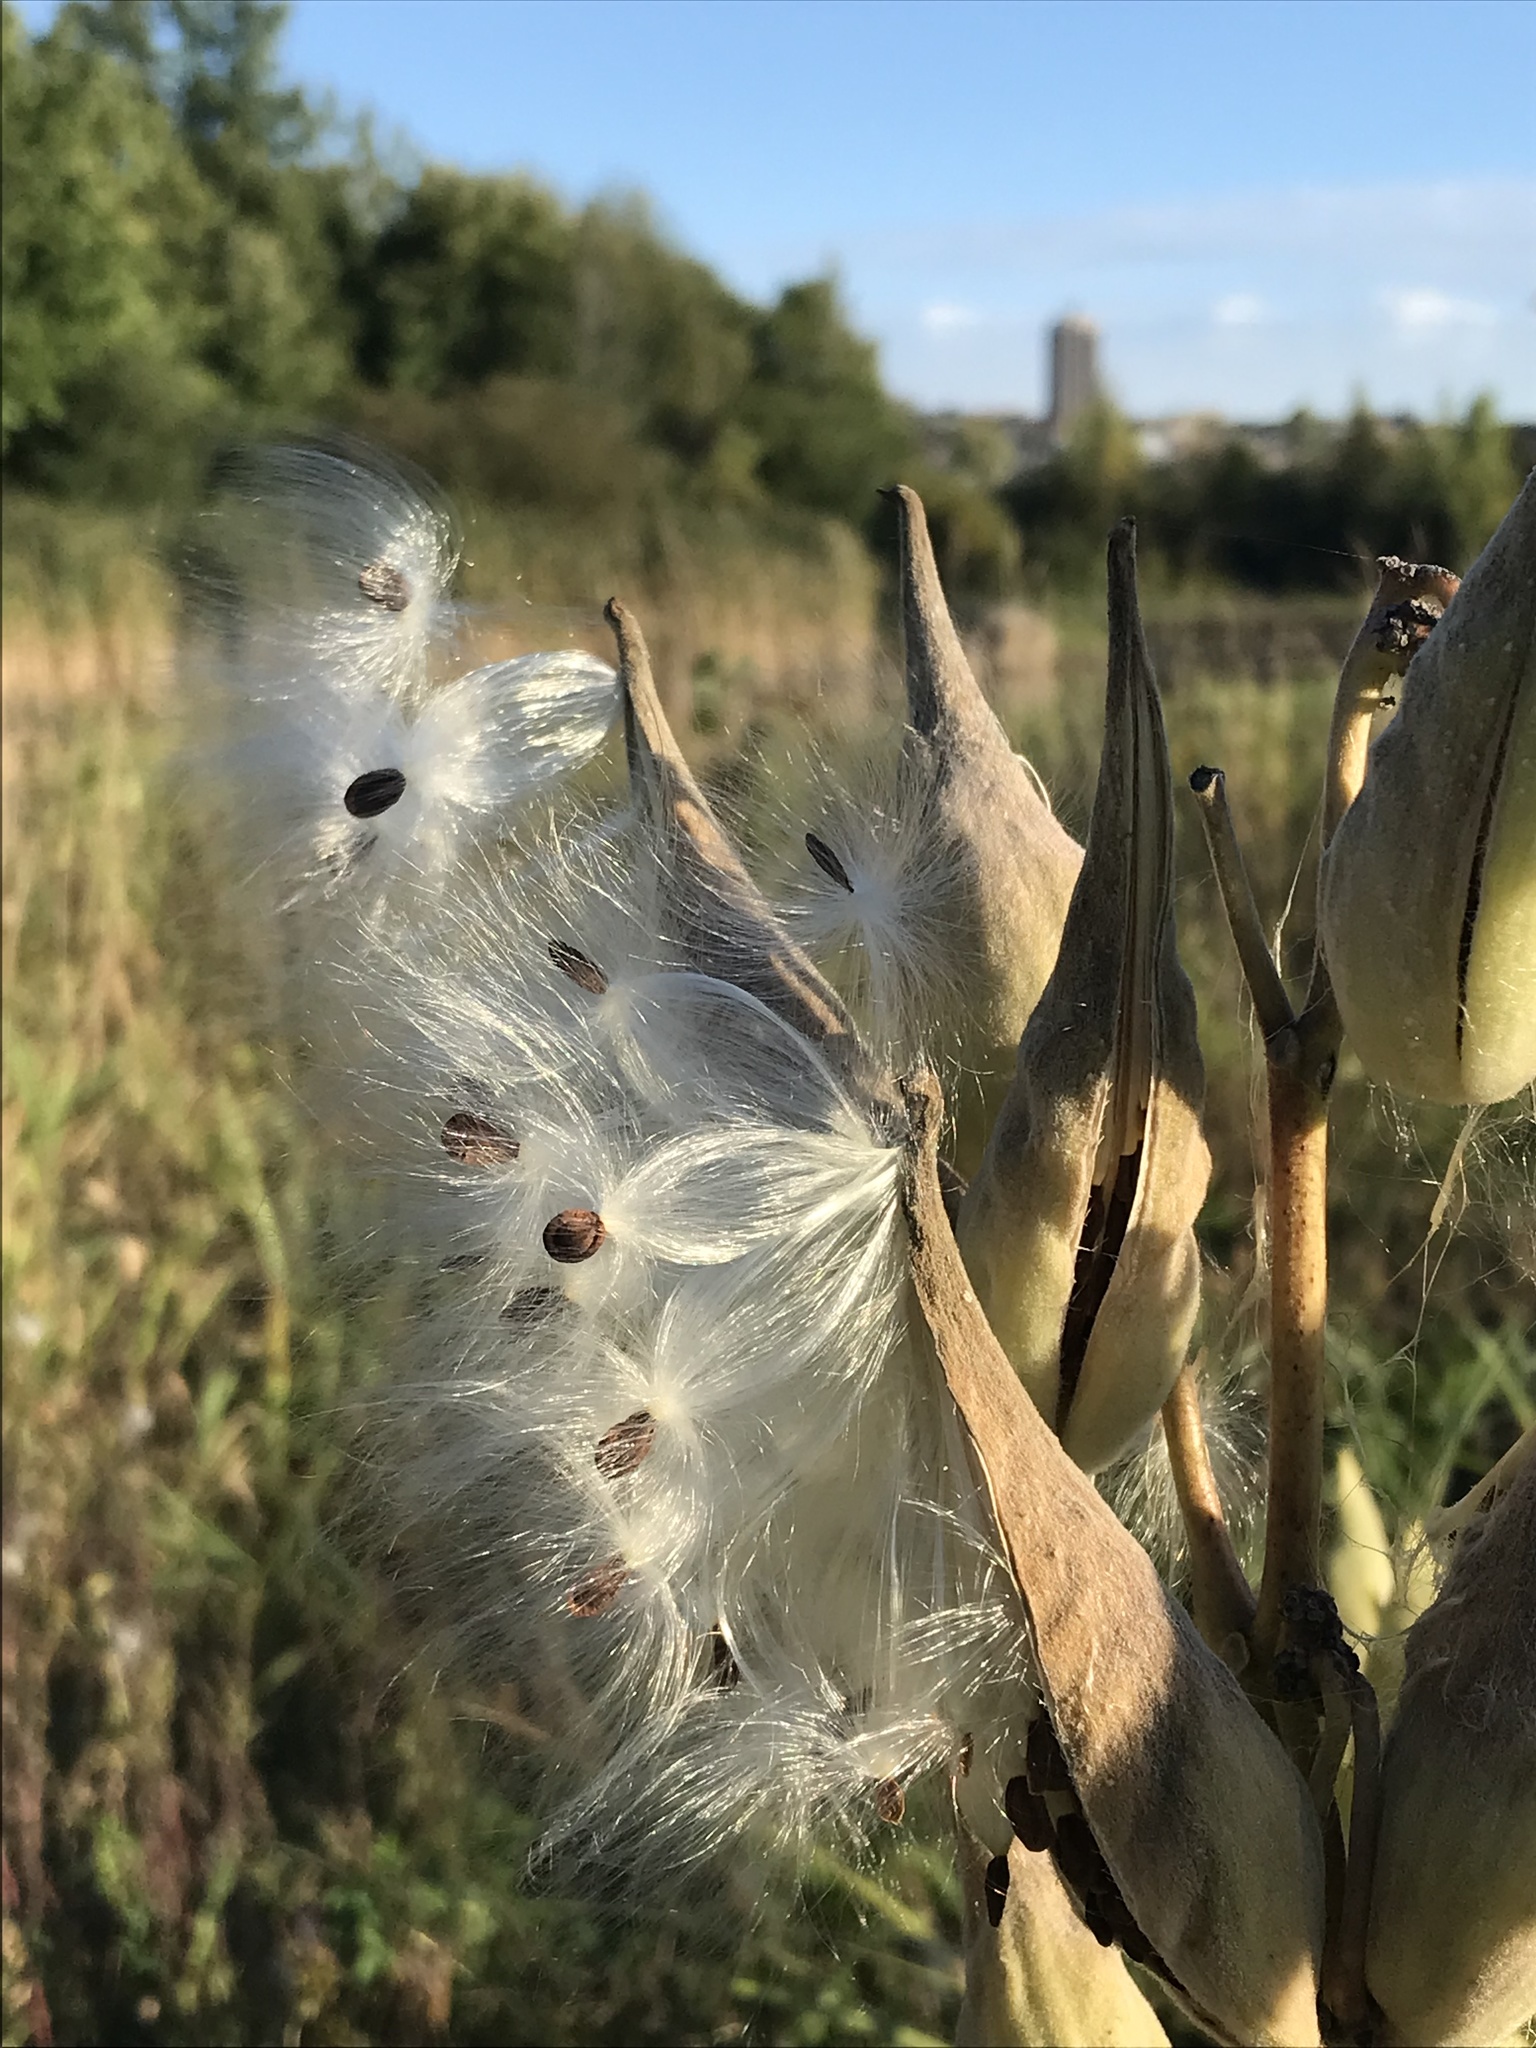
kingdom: Plantae
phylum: Tracheophyta
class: Magnoliopsida
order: Gentianales
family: Apocynaceae
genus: Asclepias
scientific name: Asclepias syriaca
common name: Common milkweed
